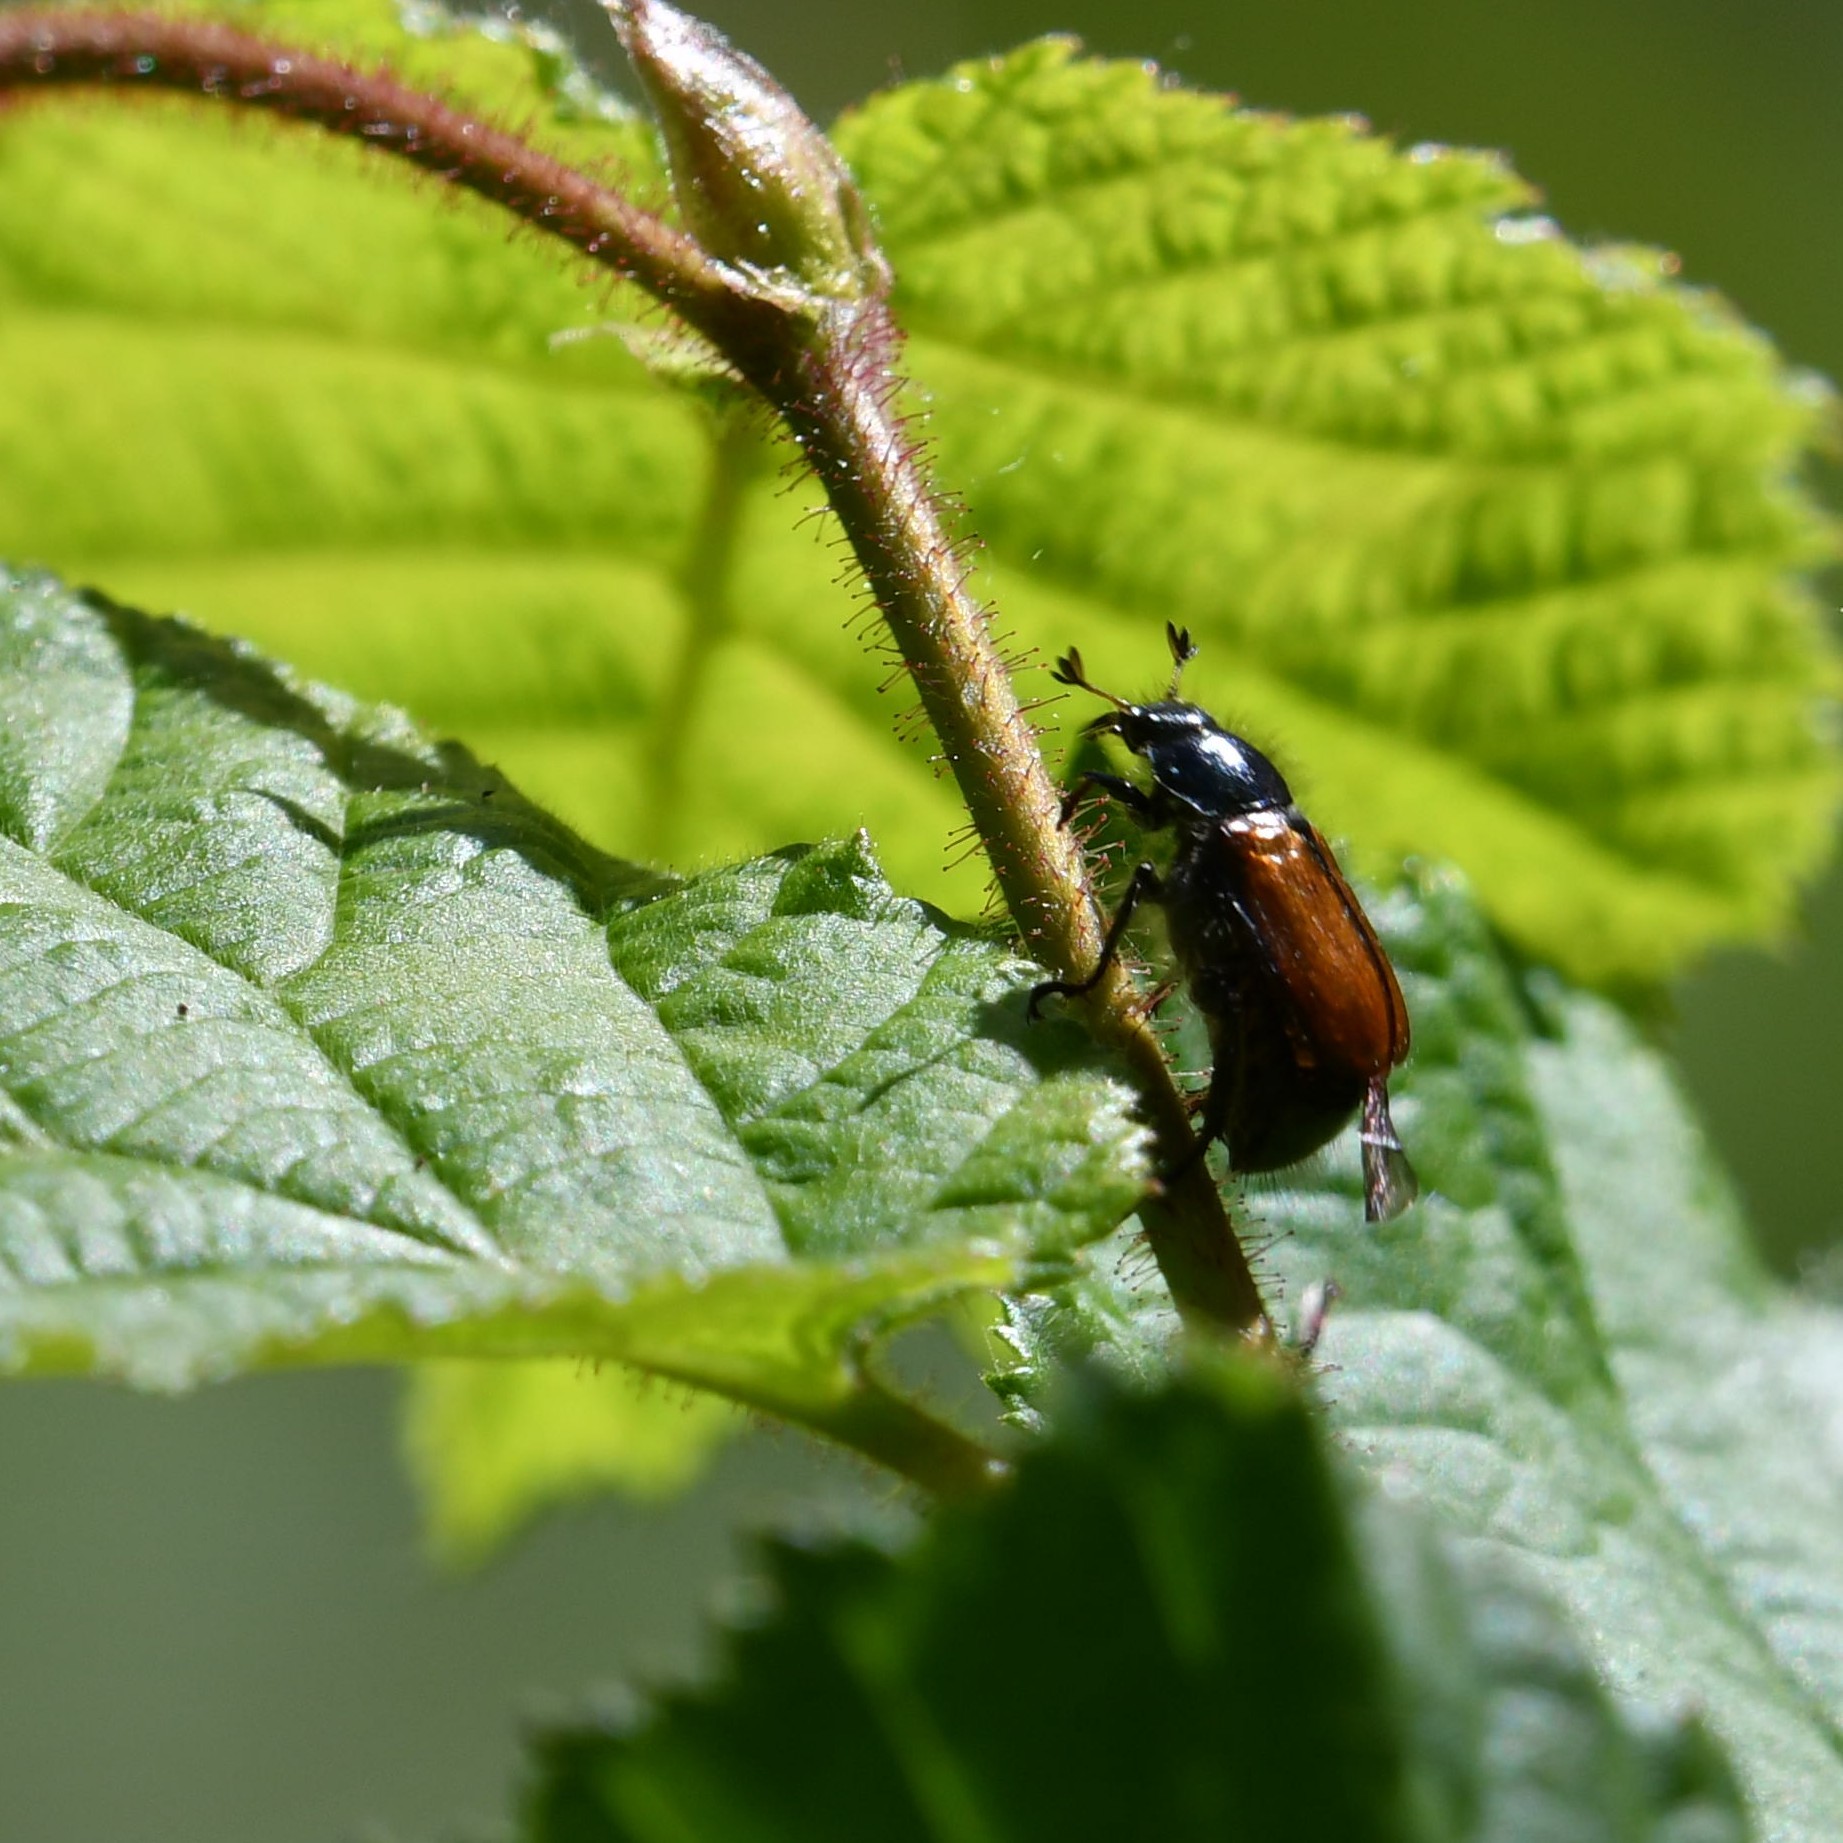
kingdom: Animalia
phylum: Arthropoda
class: Insecta
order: Coleoptera
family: Scarabaeidae
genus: Phyllopertha
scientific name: Phyllopertha horticola
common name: Garden chafer
